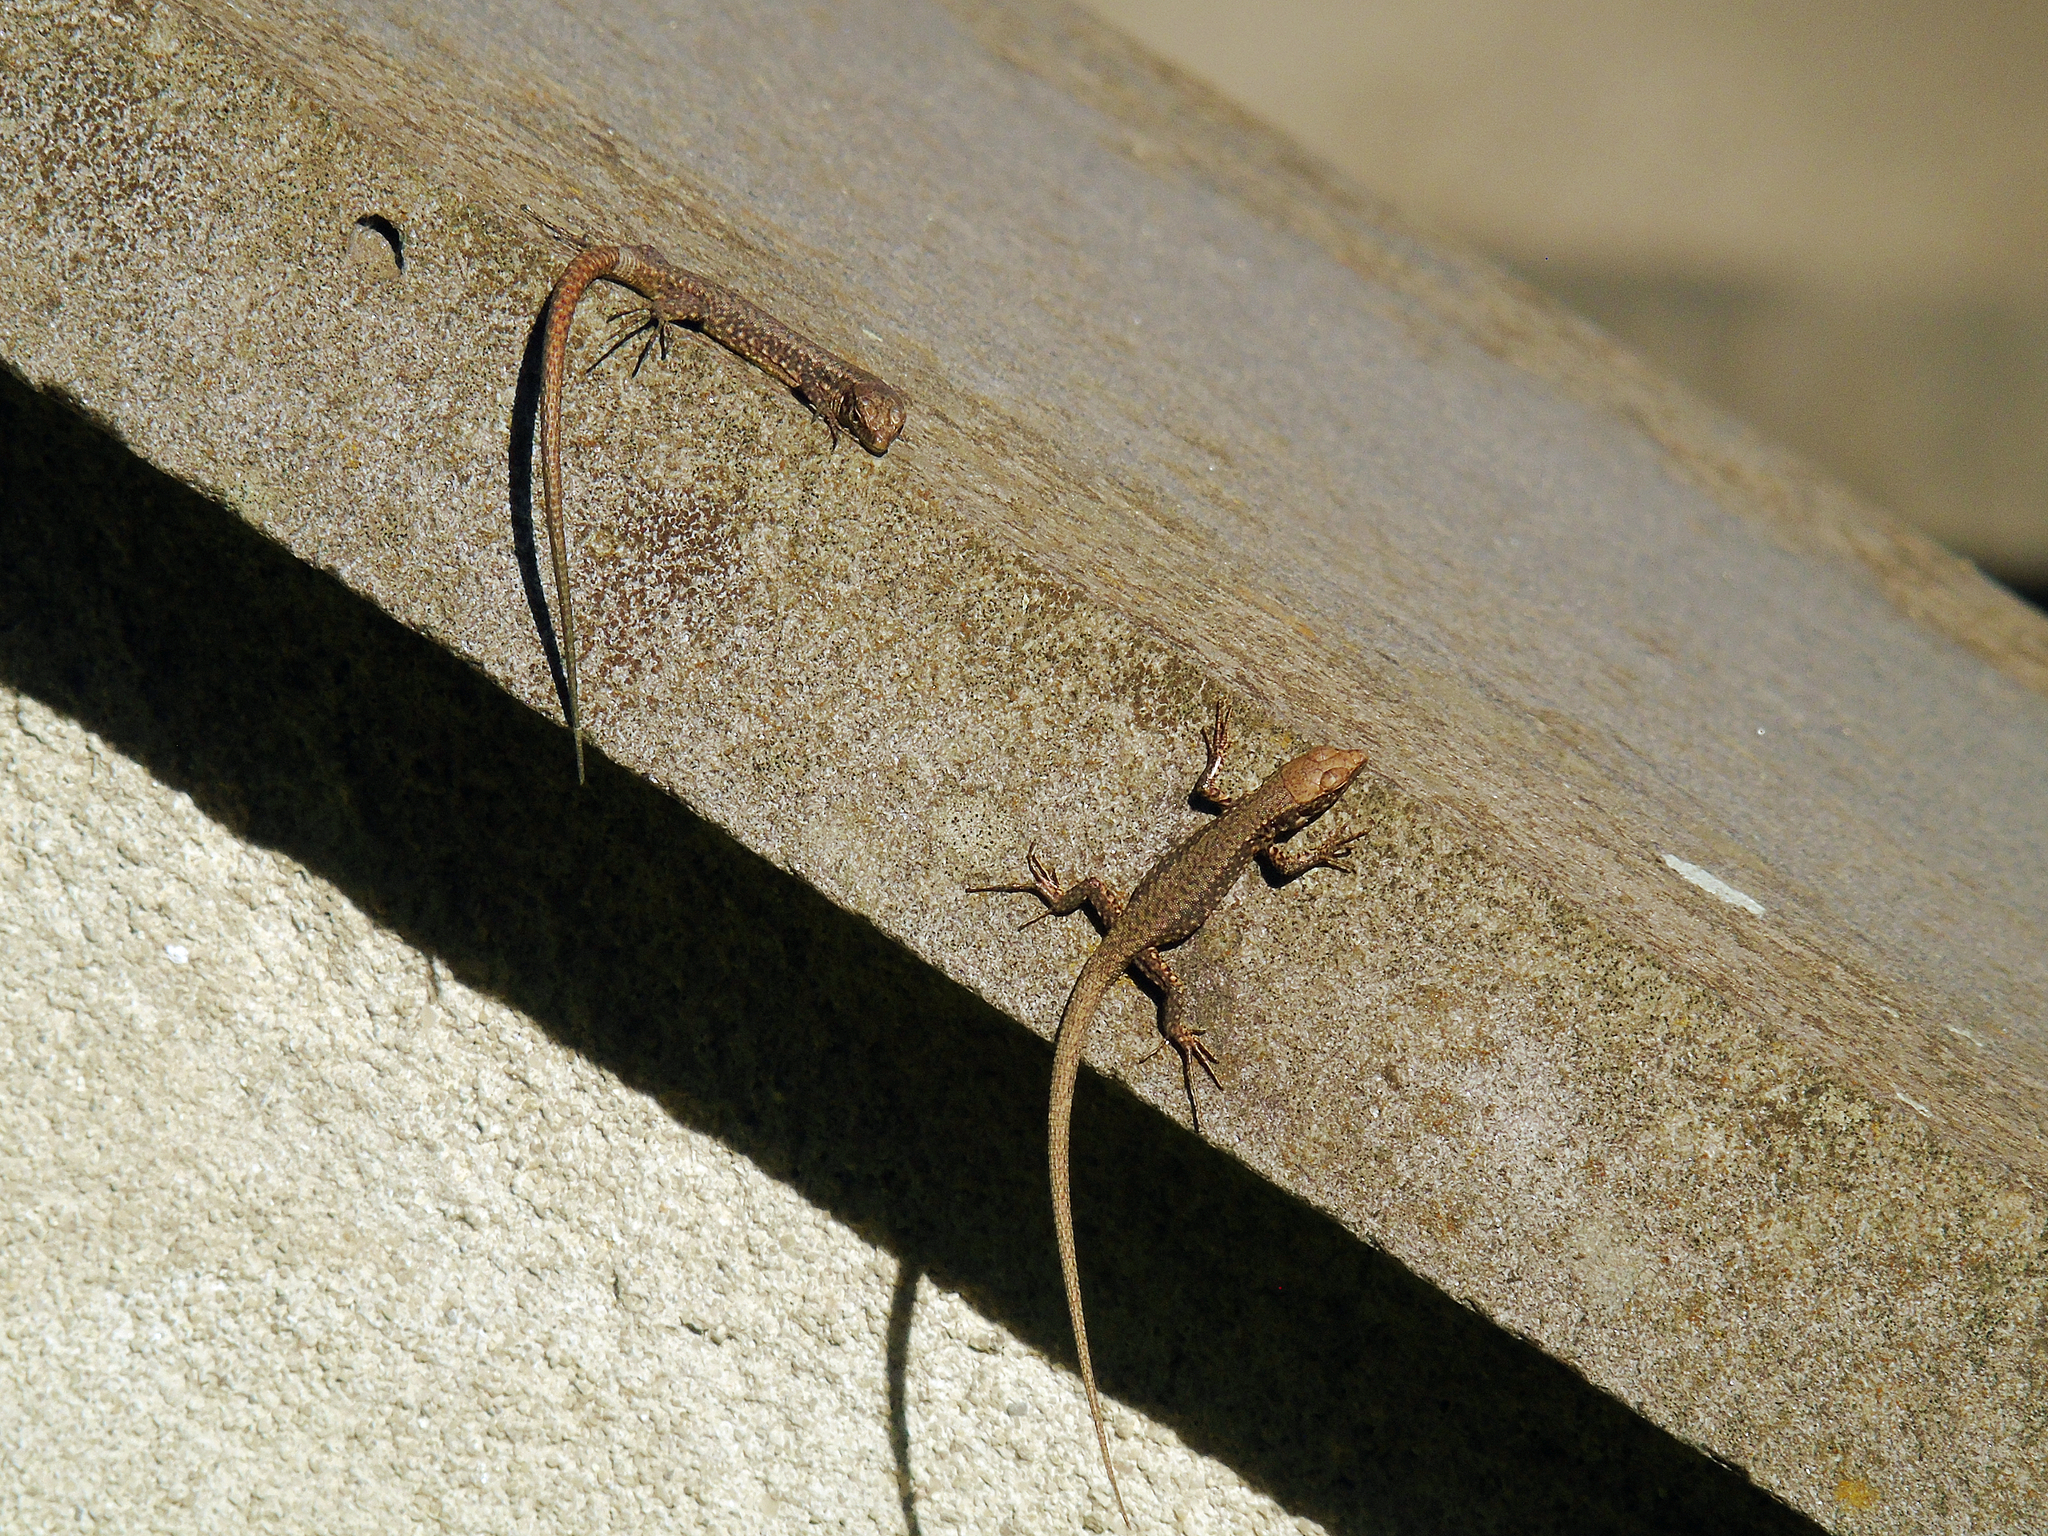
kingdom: Animalia
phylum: Chordata
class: Squamata
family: Lacertidae
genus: Darevskia
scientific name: Darevskia rudis
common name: Spiny-tailed lizard
